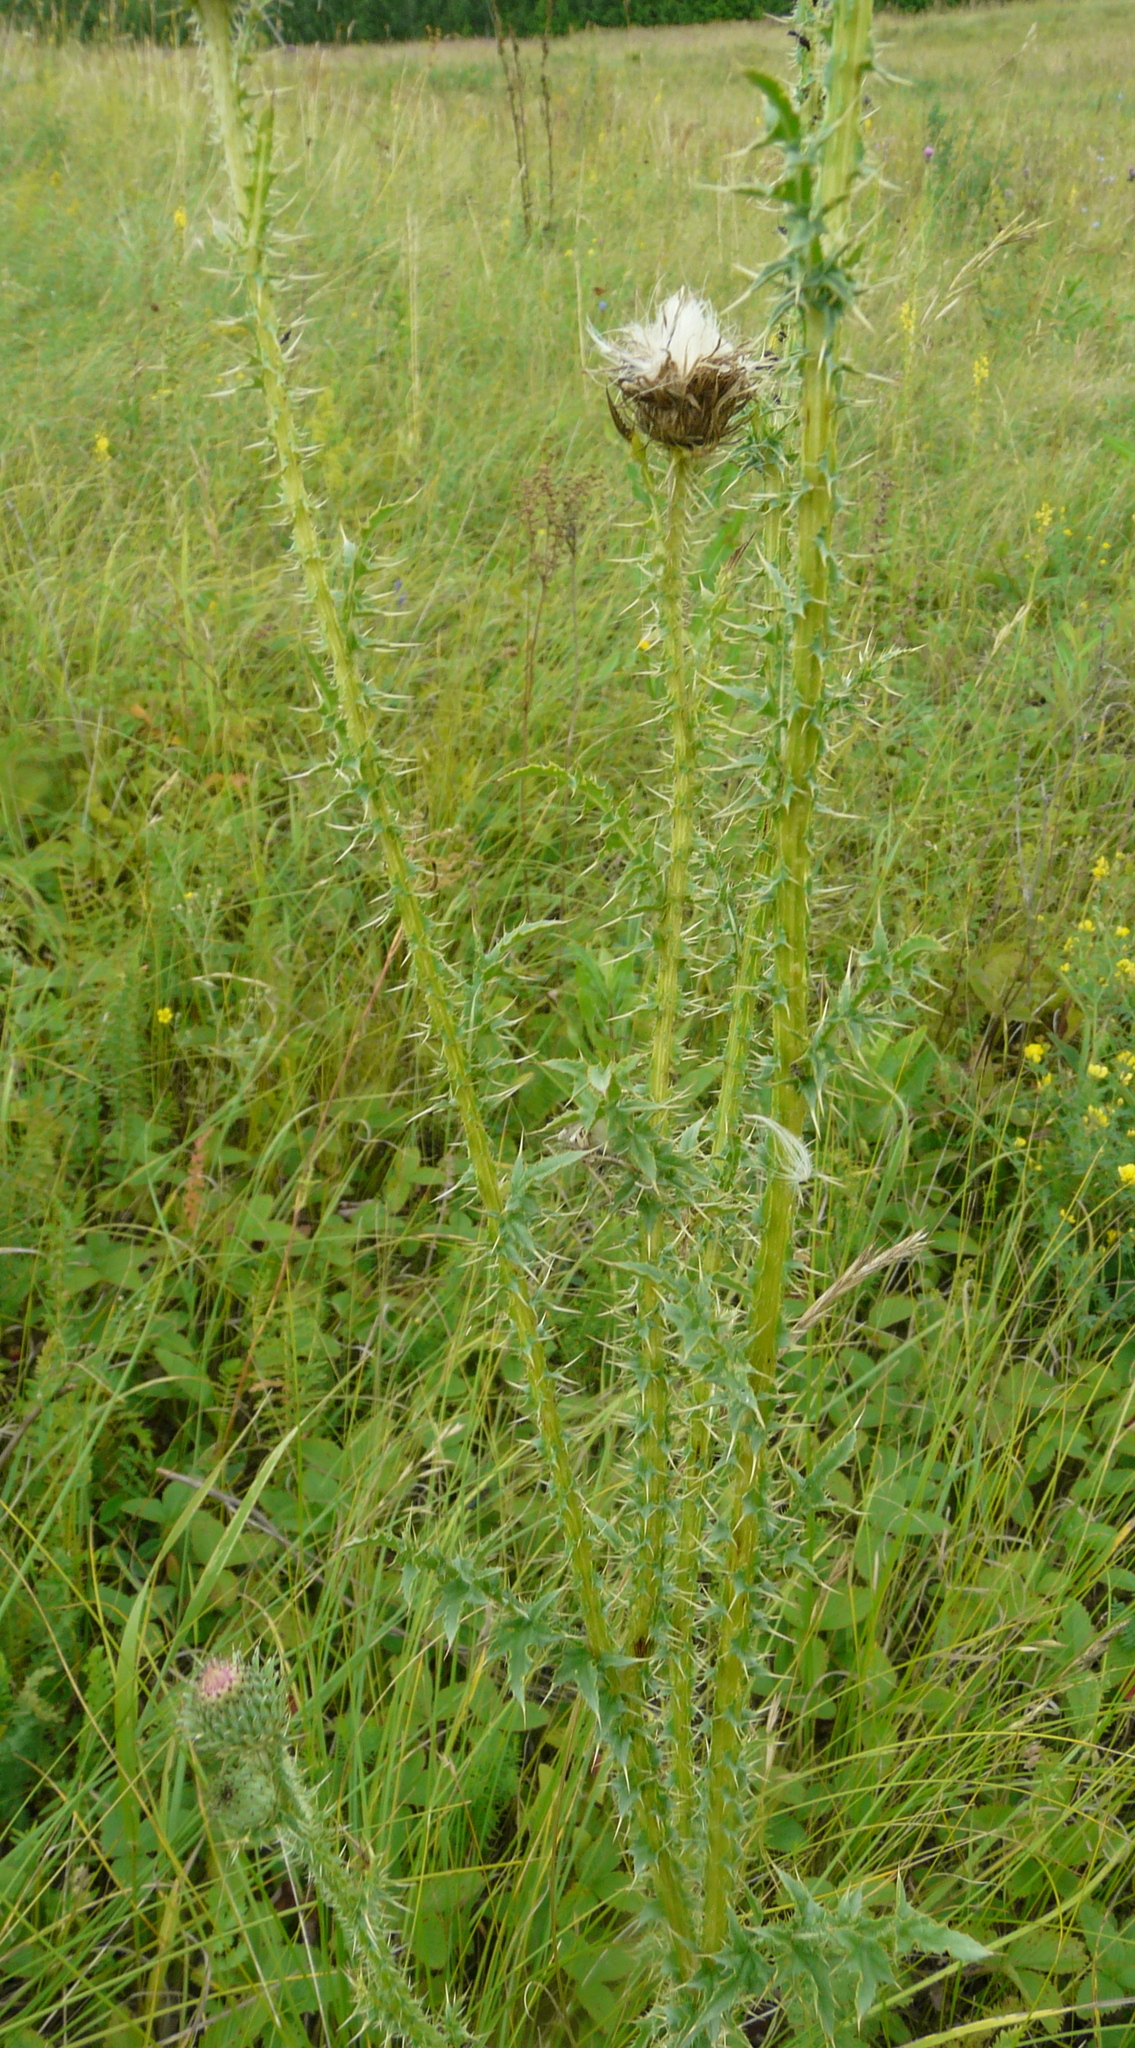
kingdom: Plantae
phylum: Tracheophyta
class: Magnoliopsida
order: Asterales
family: Asteraceae
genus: Carduus
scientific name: Carduus acanthoides
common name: Plumeless thistle
